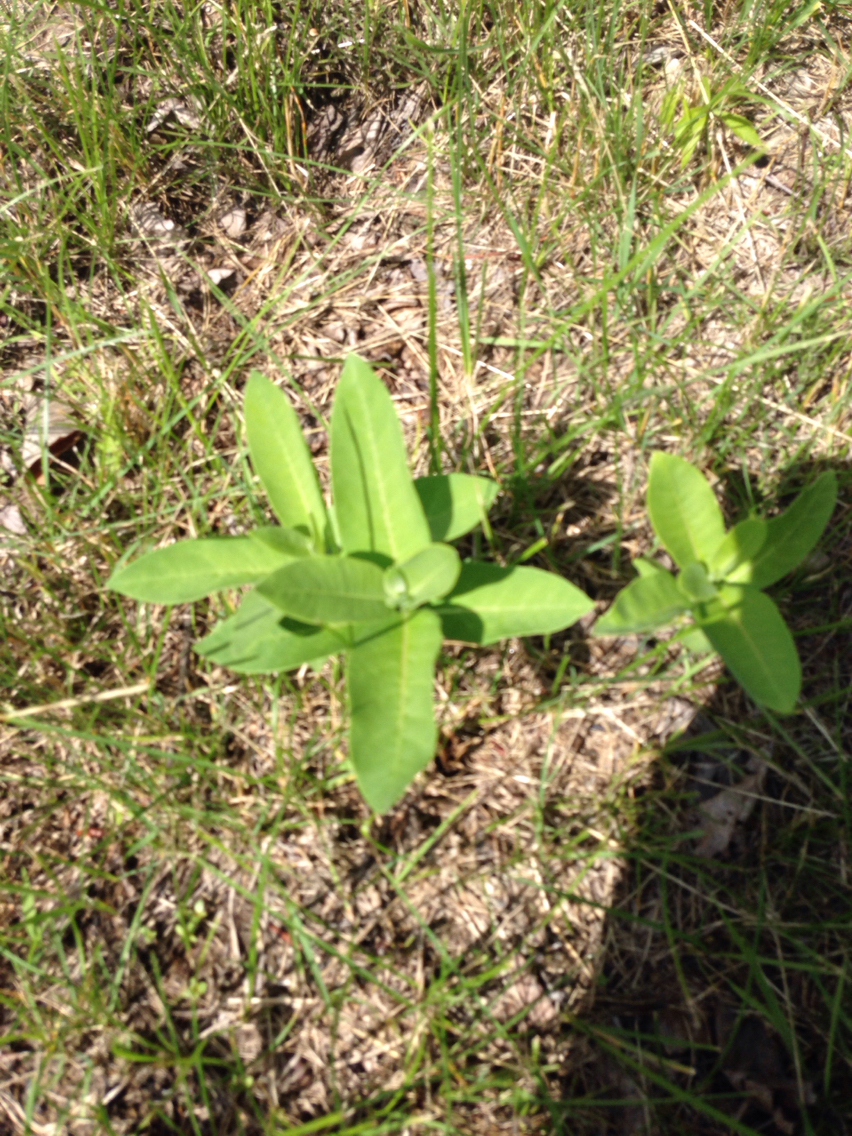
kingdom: Plantae
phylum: Tracheophyta
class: Magnoliopsida
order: Gentianales
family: Apocynaceae
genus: Asclepias
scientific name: Asclepias syriaca
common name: Common milkweed
